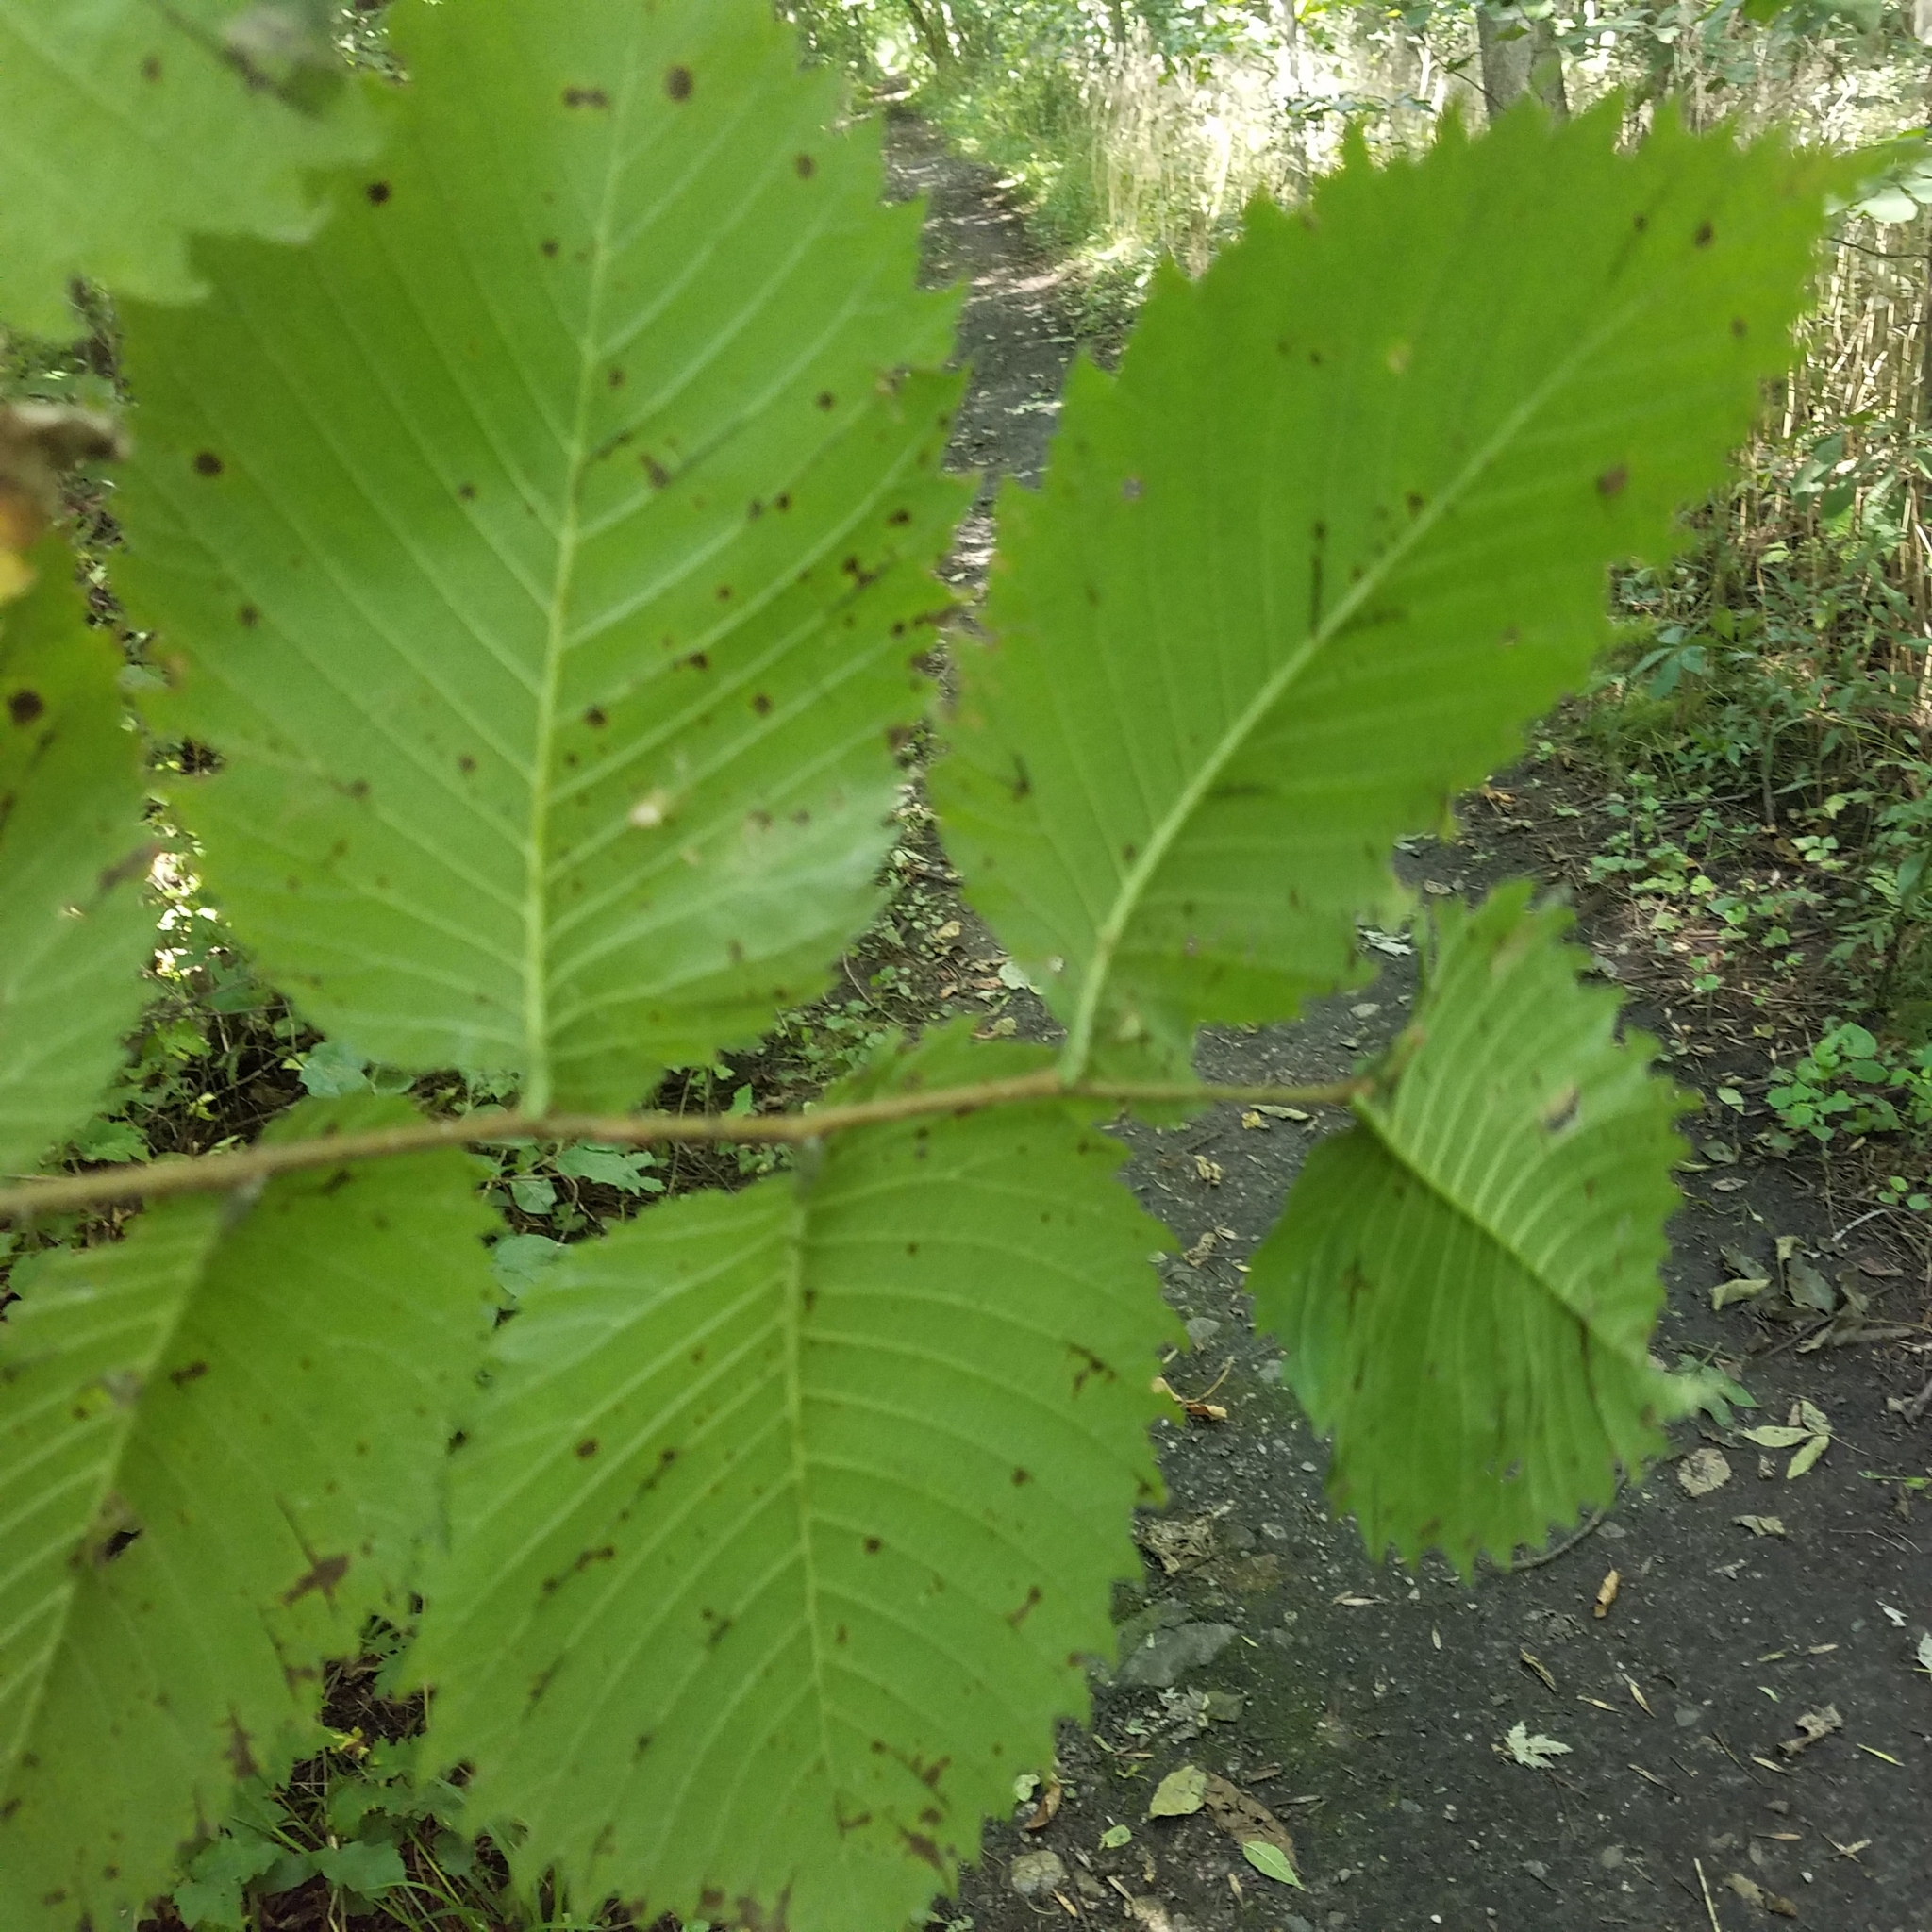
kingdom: Plantae
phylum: Tracheophyta
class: Magnoliopsida
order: Rosales
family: Ulmaceae
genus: Ulmus
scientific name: Ulmus americana
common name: American elm
